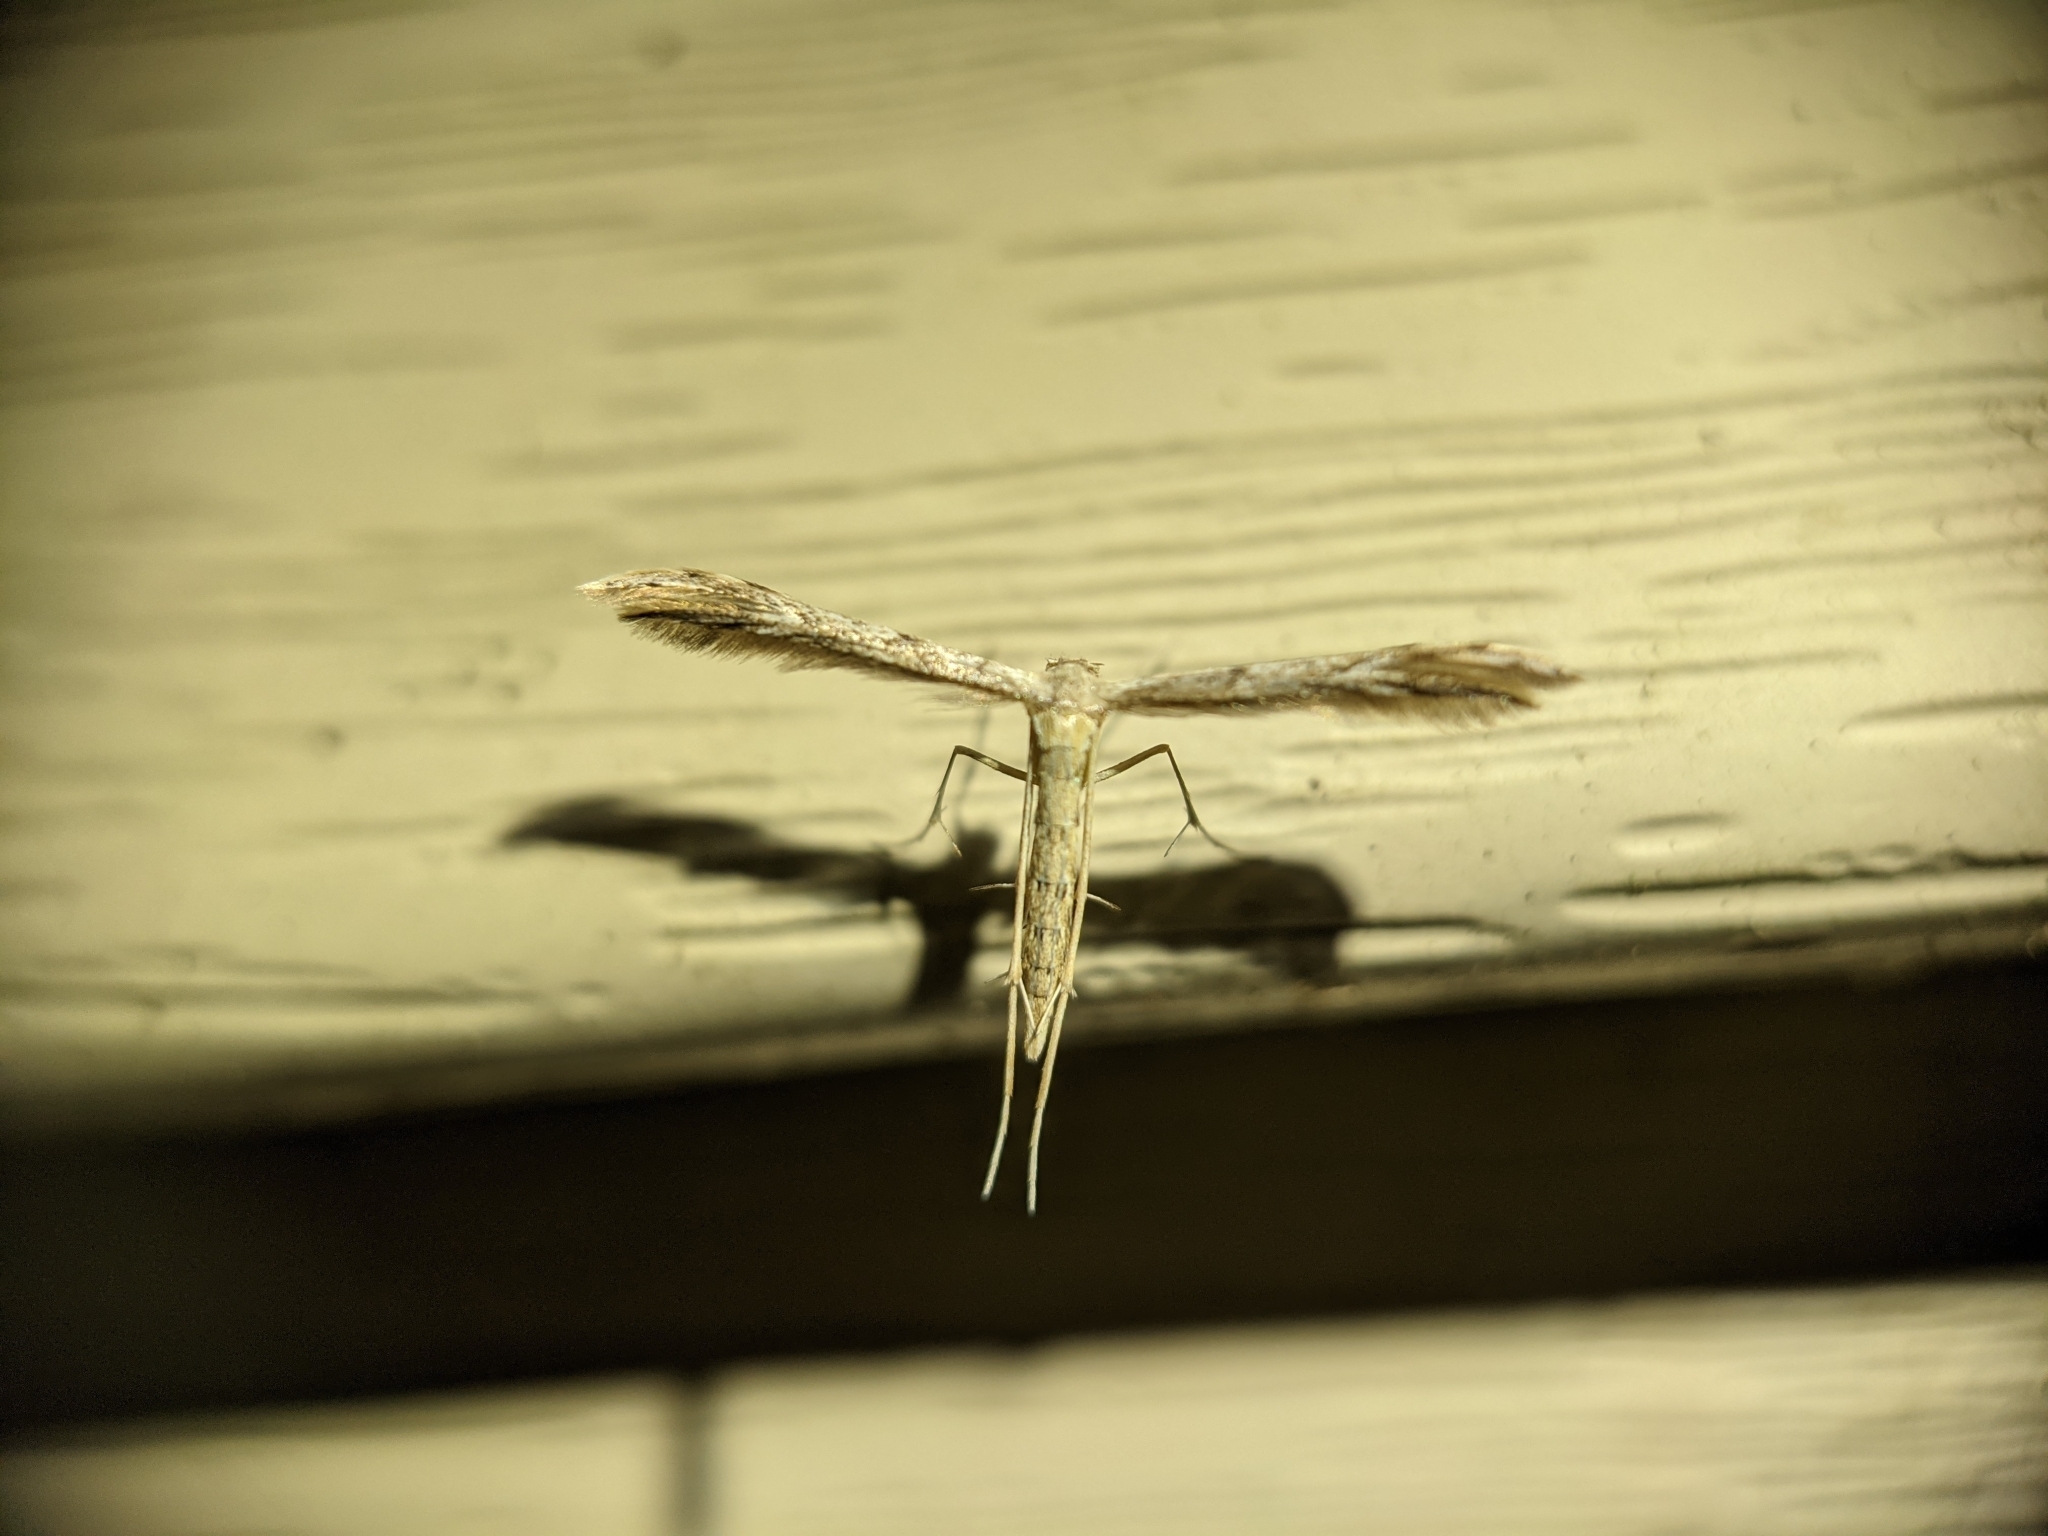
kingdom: Animalia
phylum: Arthropoda
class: Insecta
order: Lepidoptera
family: Pterophoridae
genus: Pselnophorus
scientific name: Pselnophorus belfragei
